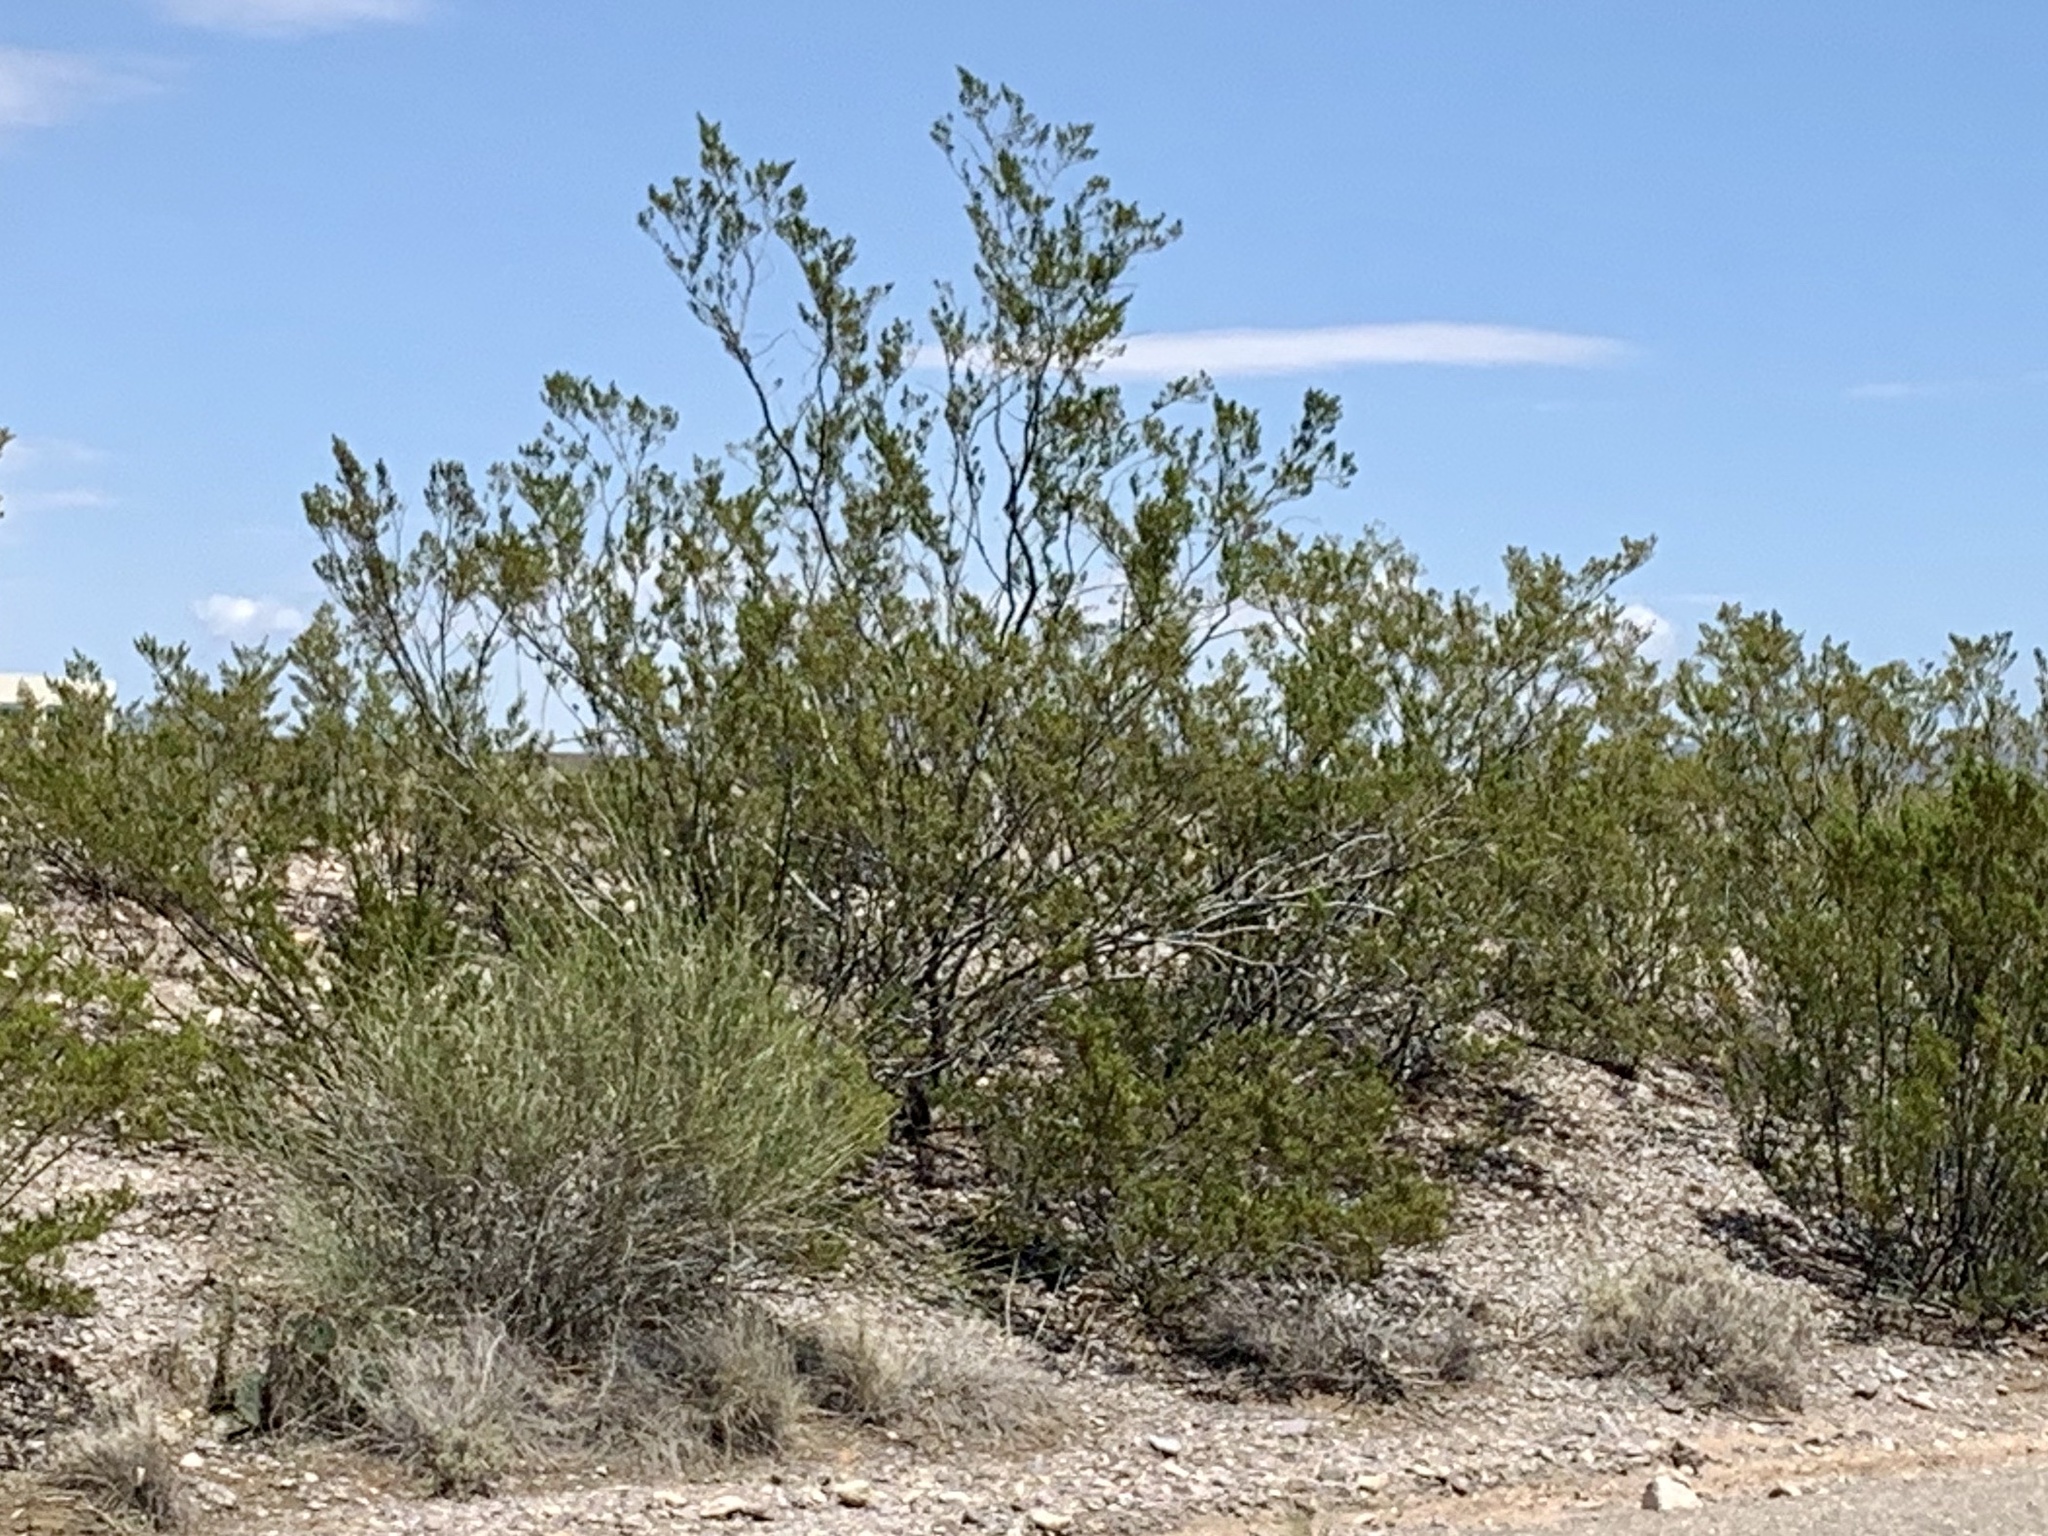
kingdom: Plantae
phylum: Tracheophyta
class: Magnoliopsida
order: Zygophyllales
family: Zygophyllaceae
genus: Larrea
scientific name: Larrea tridentata
